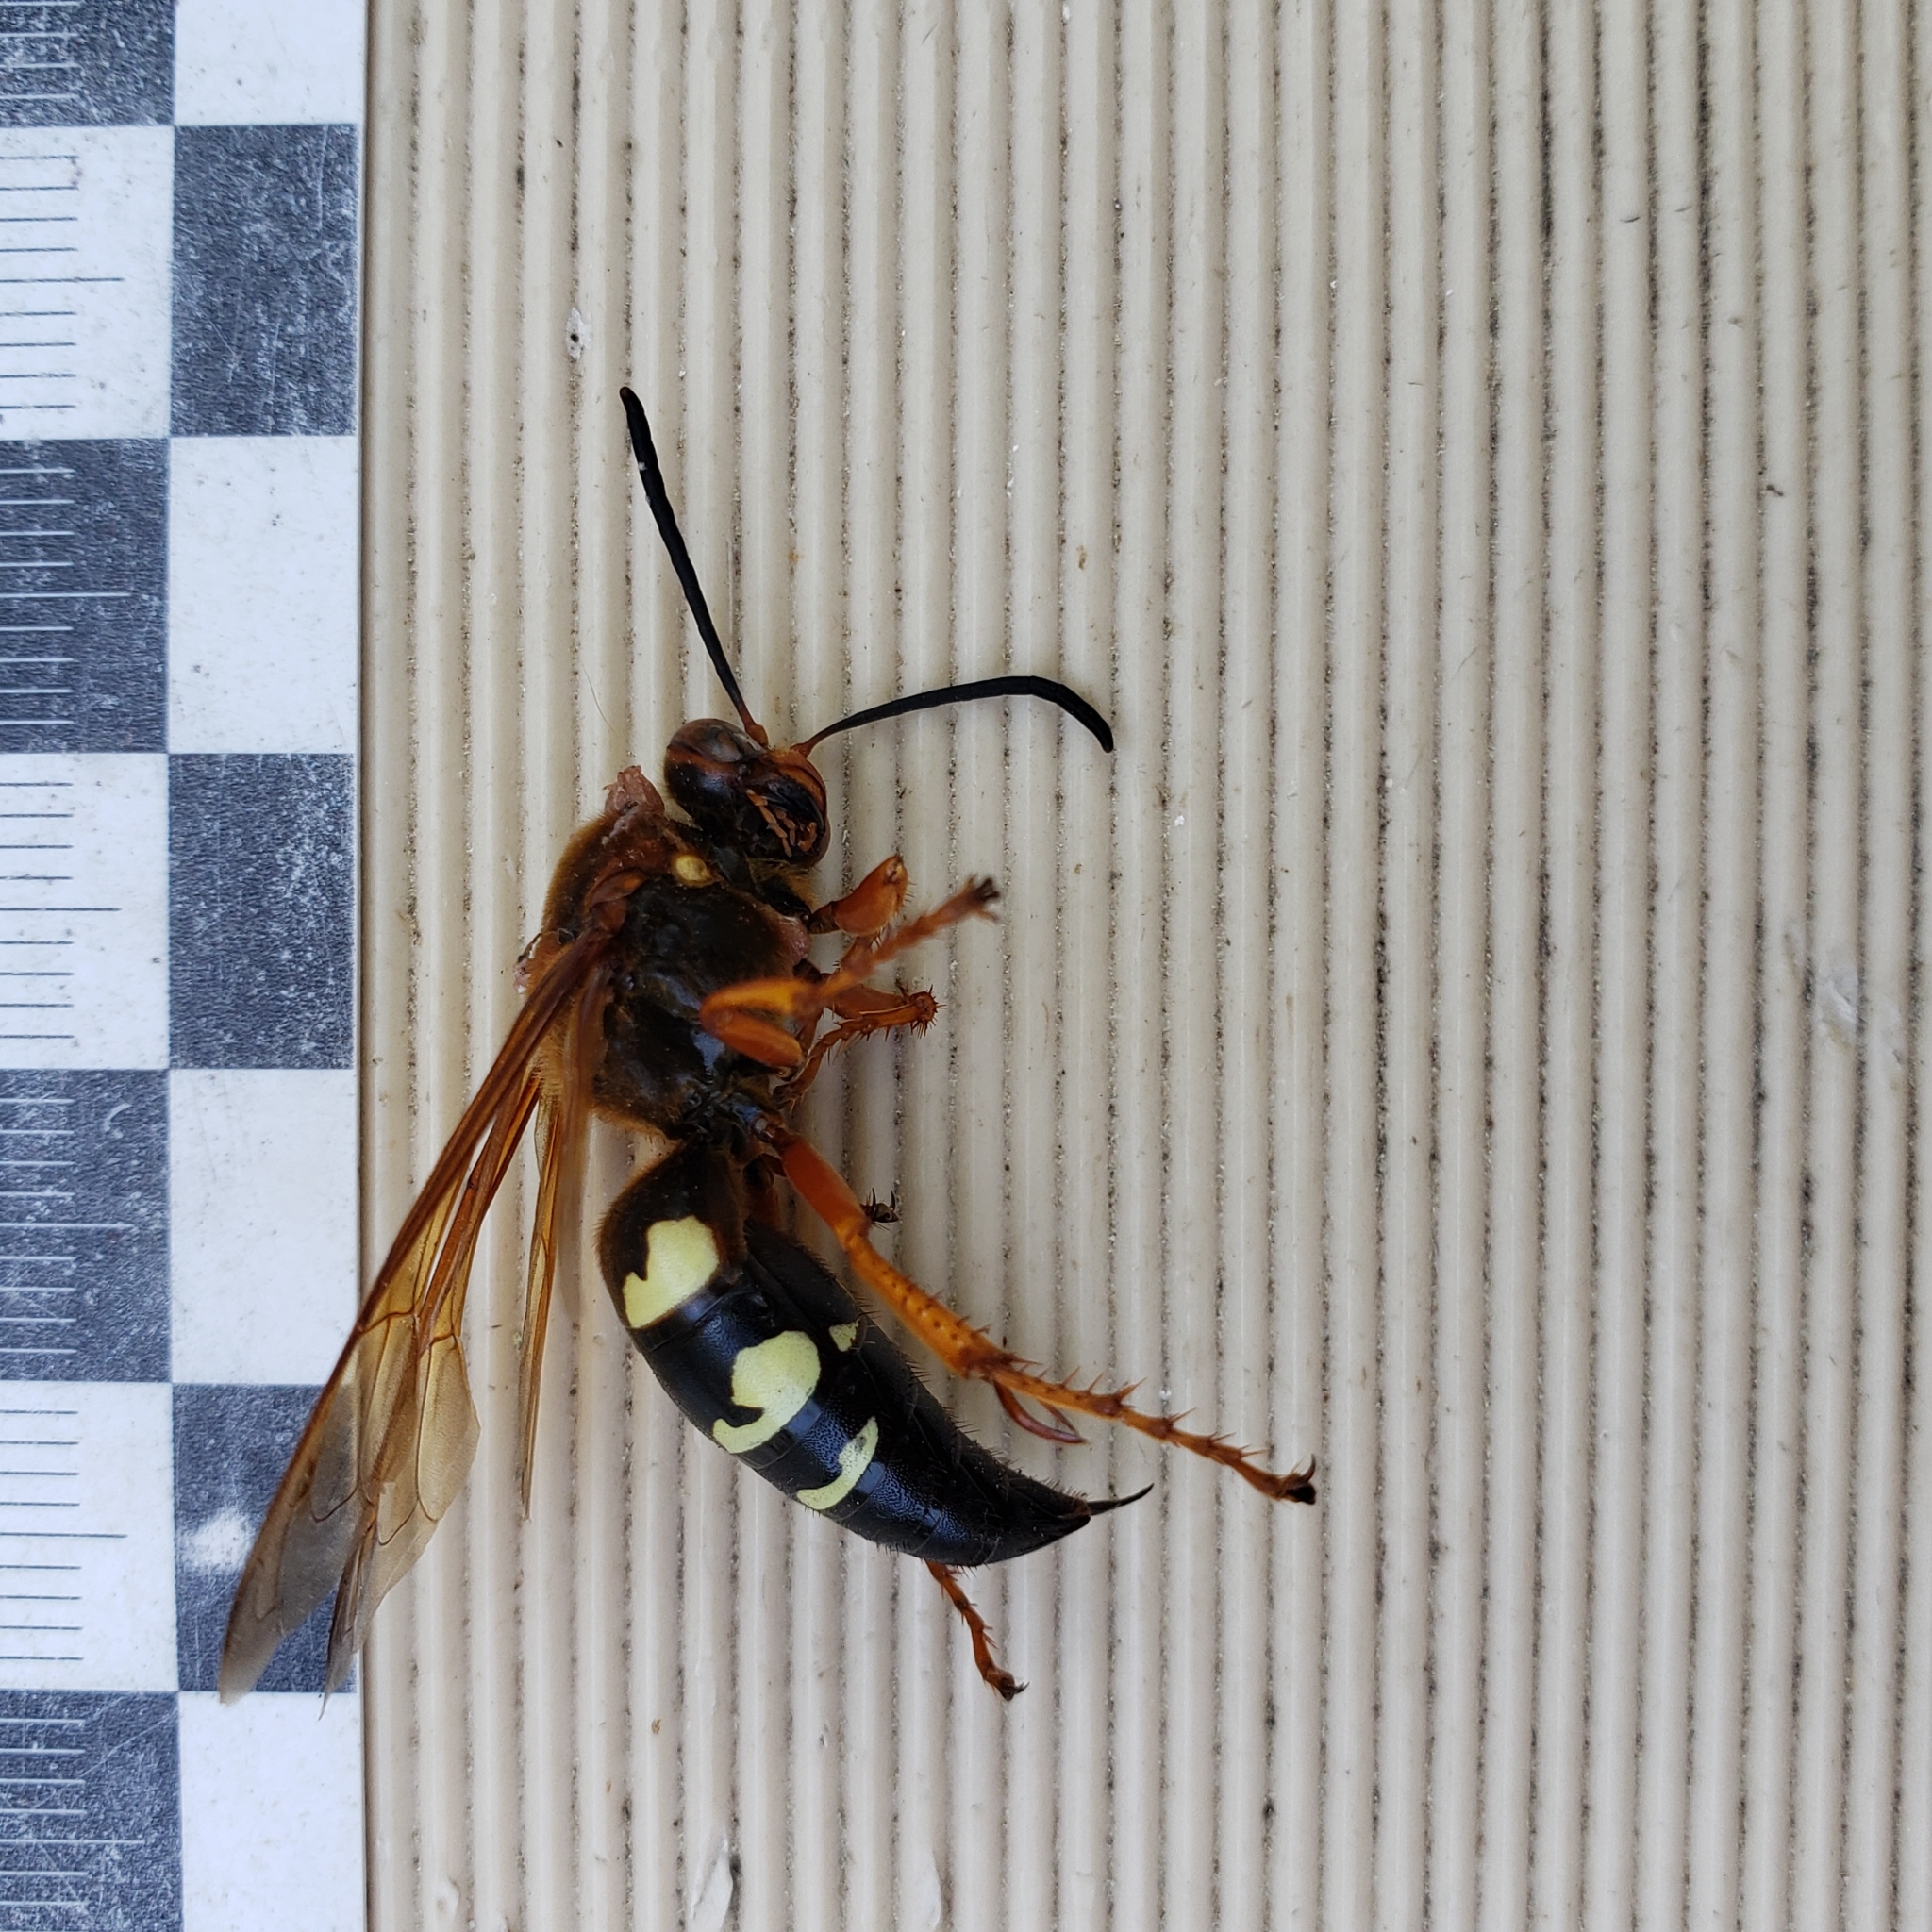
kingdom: Animalia
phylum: Arthropoda
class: Insecta
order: Hymenoptera
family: Crabronidae
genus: Sphecius
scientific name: Sphecius speciosus
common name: Cicada killer
